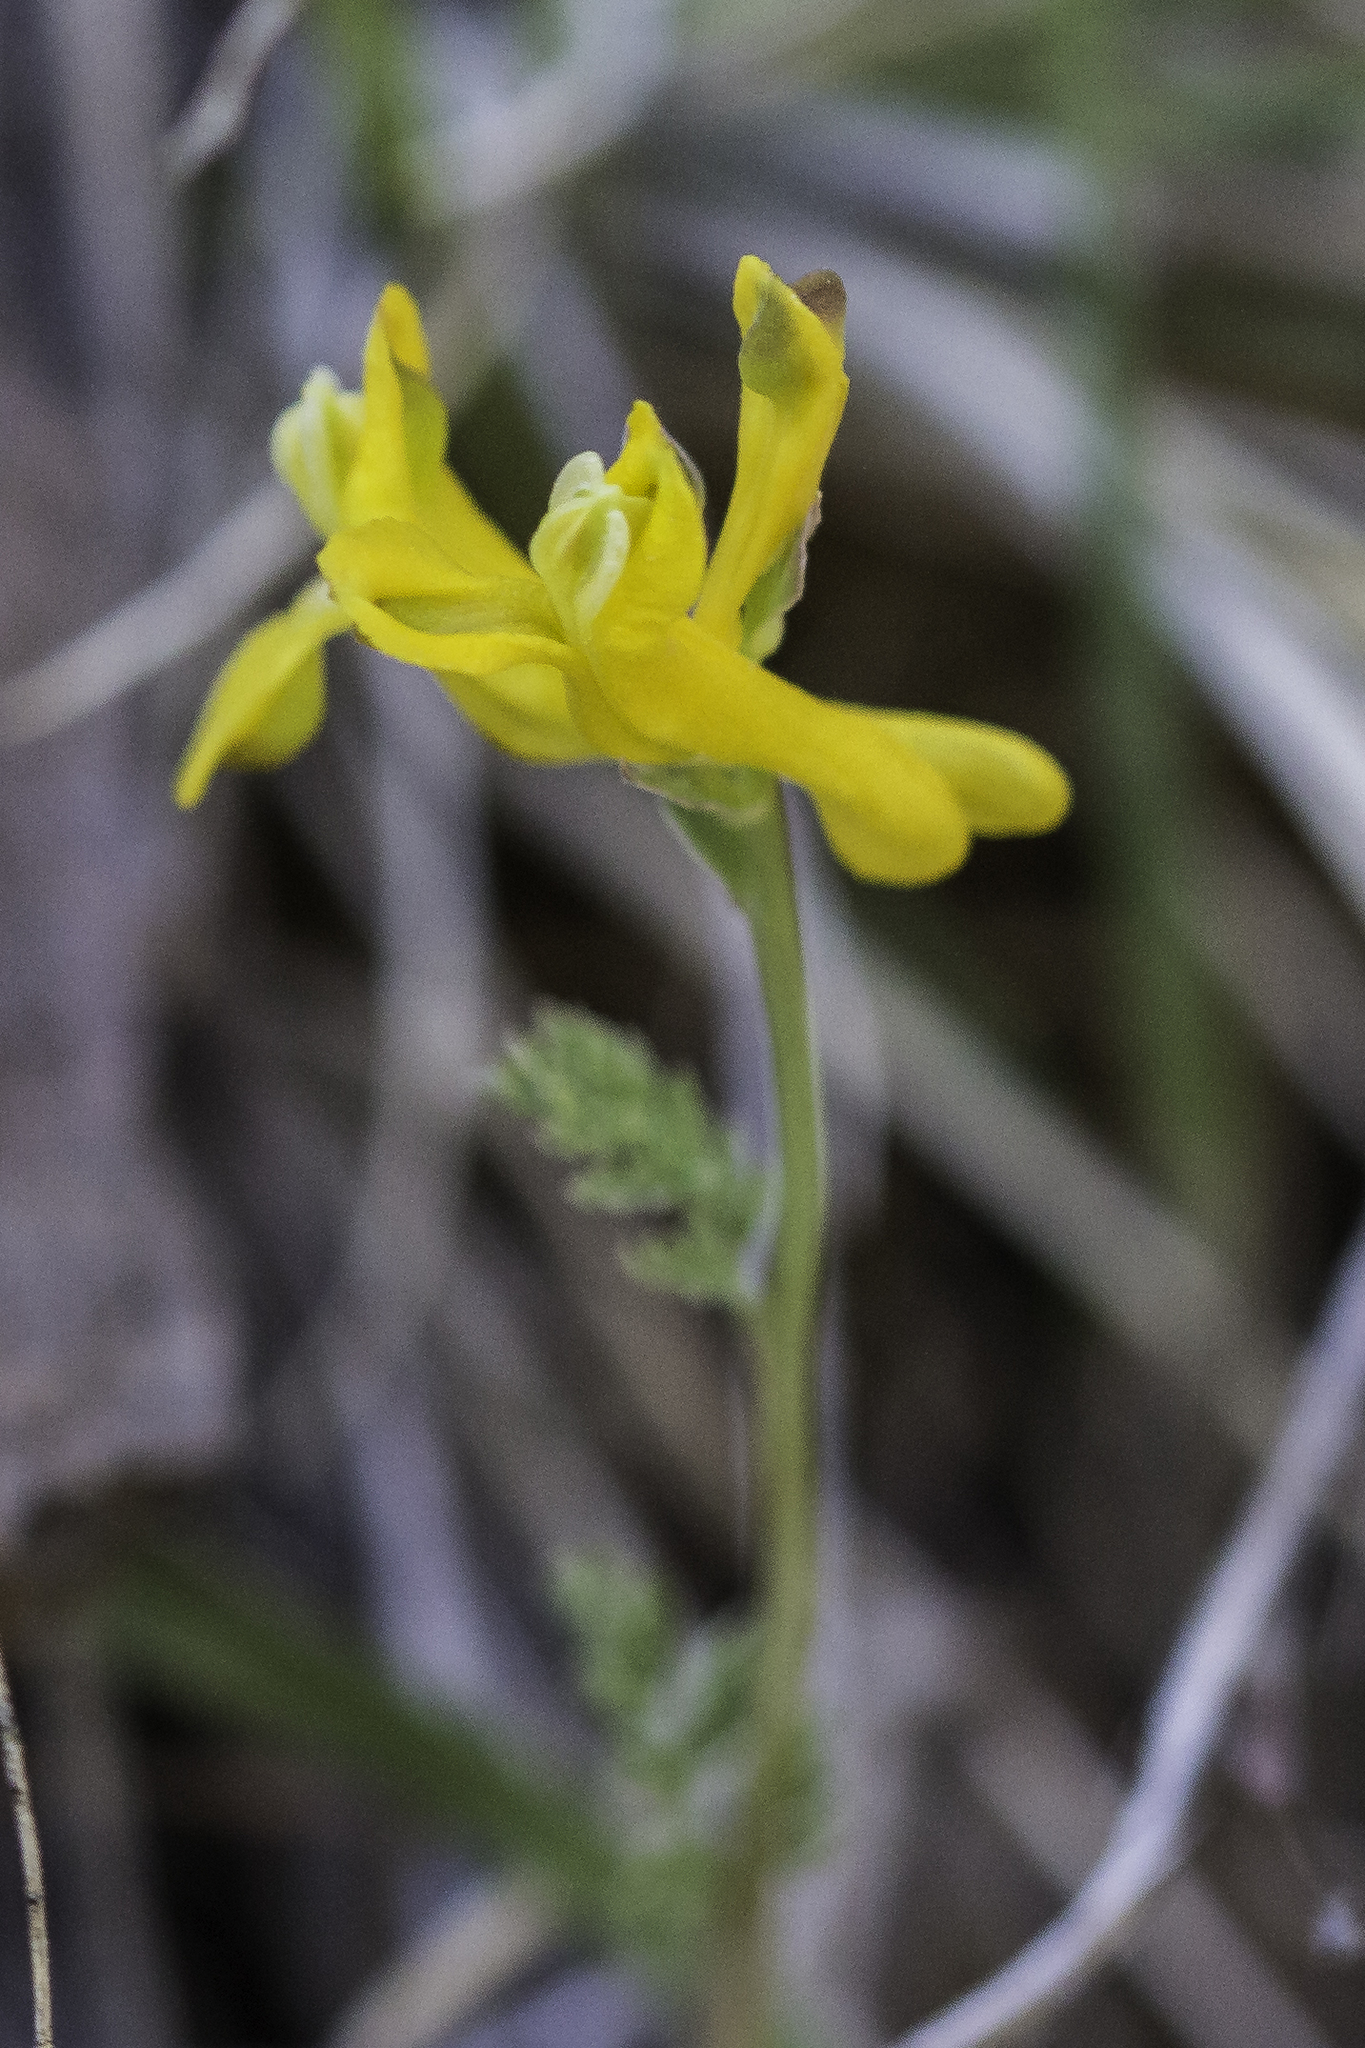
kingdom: Plantae
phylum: Tracheophyta
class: Magnoliopsida
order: Ranunculales
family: Papaveraceae
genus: Corydalis
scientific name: Corydalis aurea
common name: Golden corydalis
